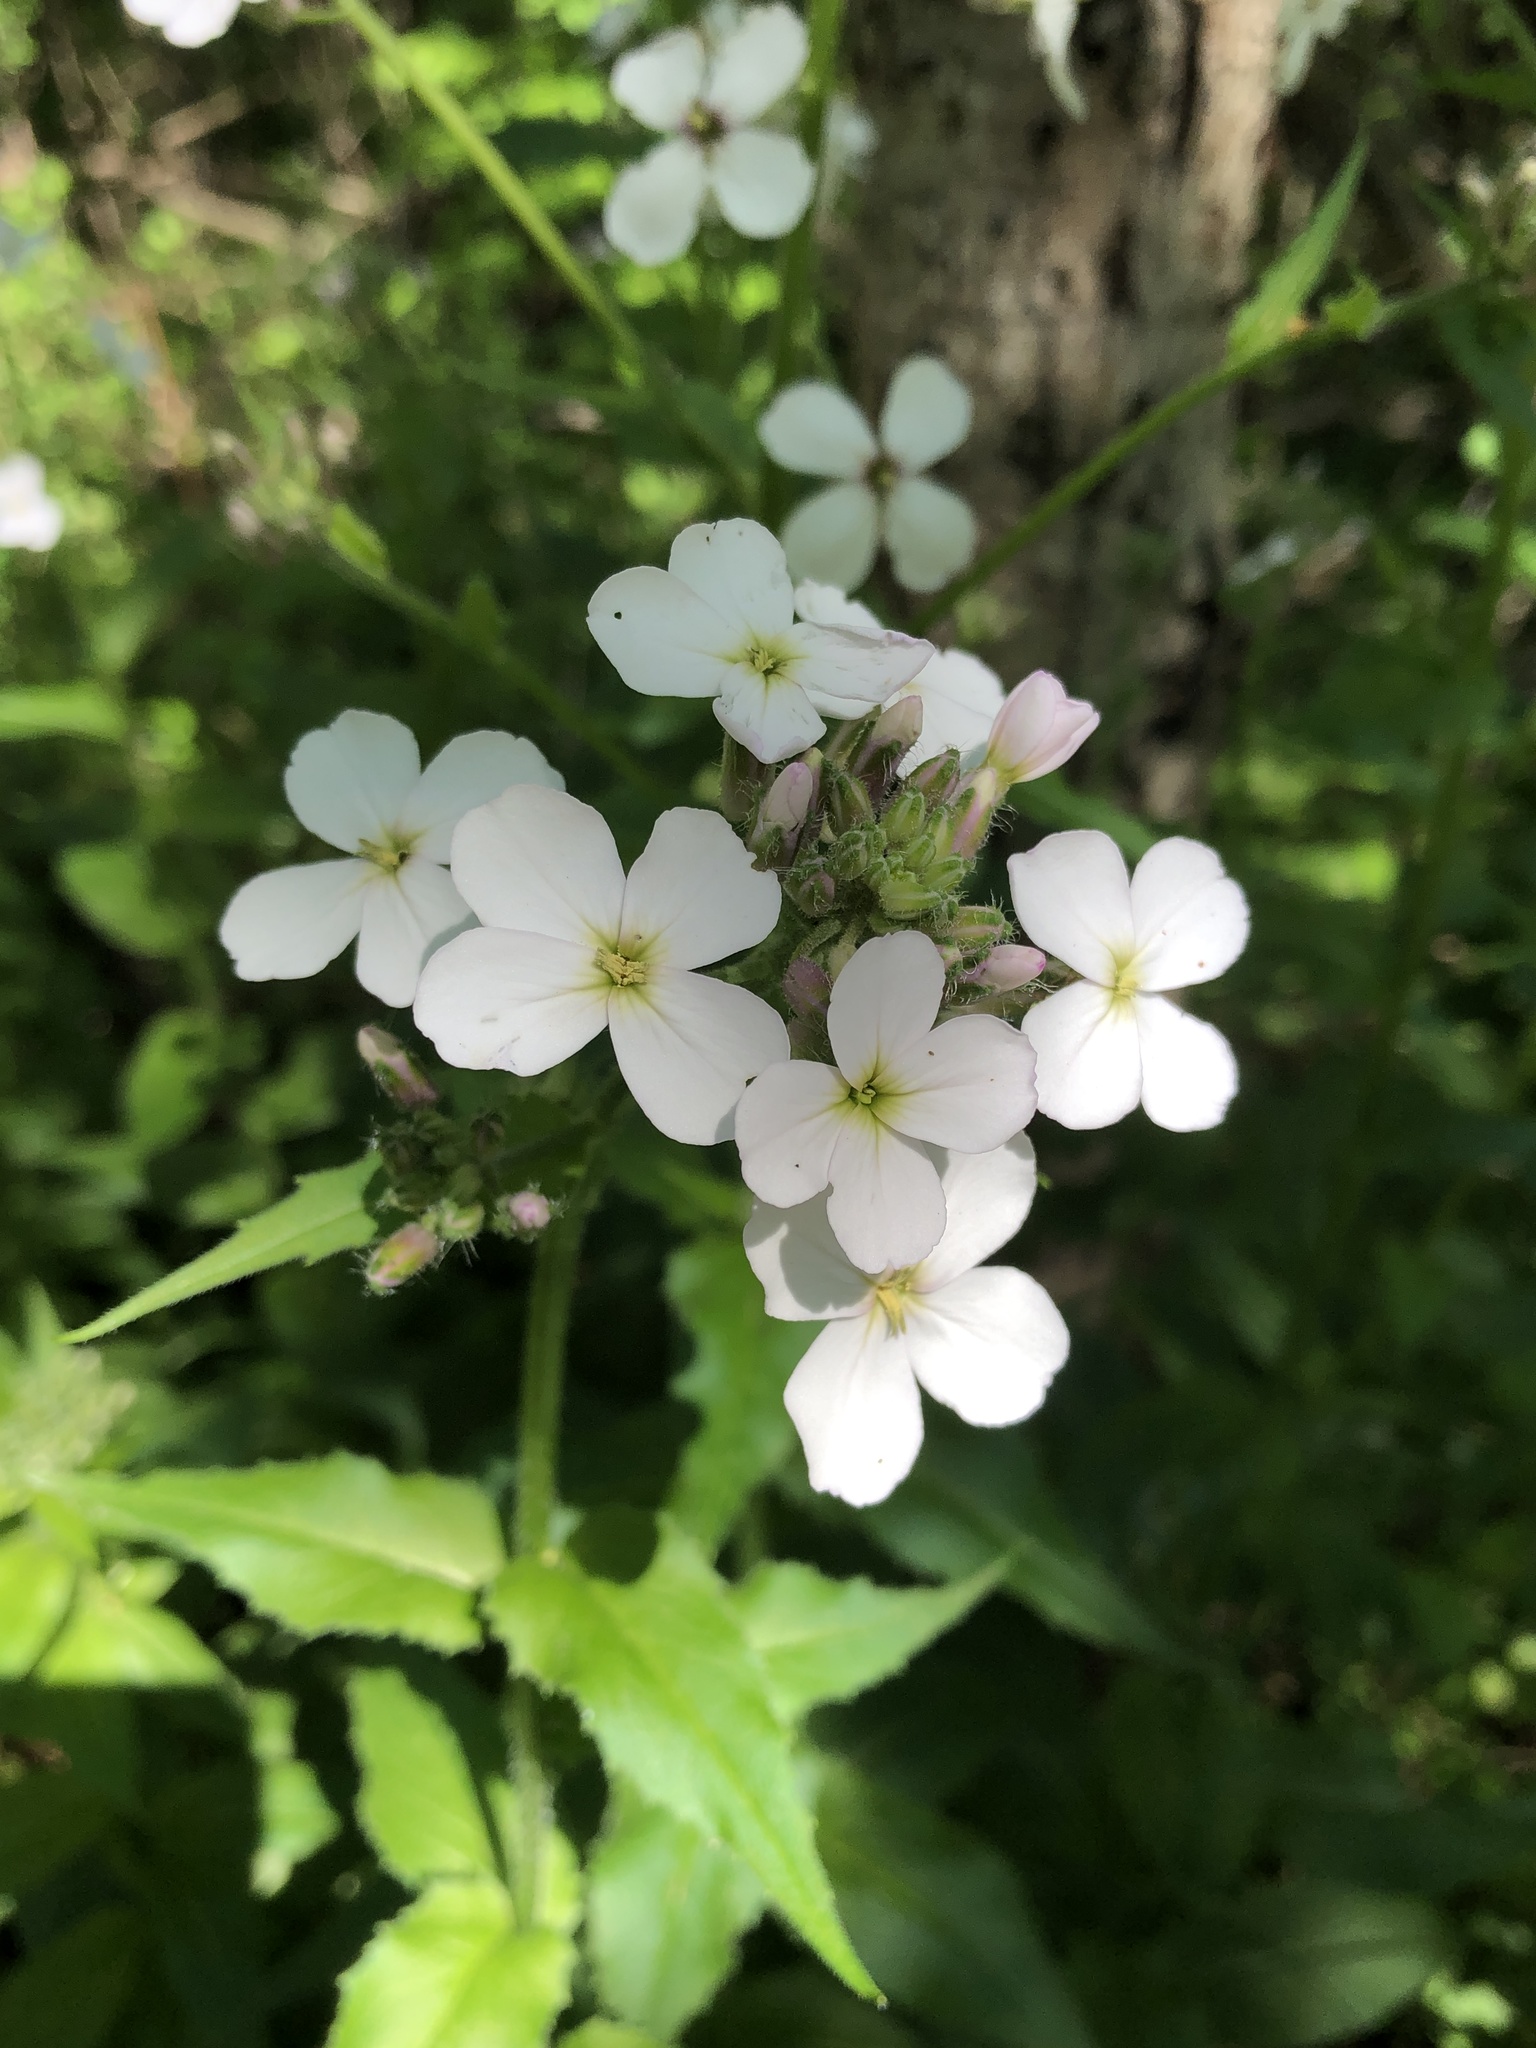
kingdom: Plantae
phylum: Tracheophyta
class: Magnoliopsida
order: Brassicales
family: Brassicaceae
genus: Hesperis
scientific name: Hesperis matronalis
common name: Dame's-violet
